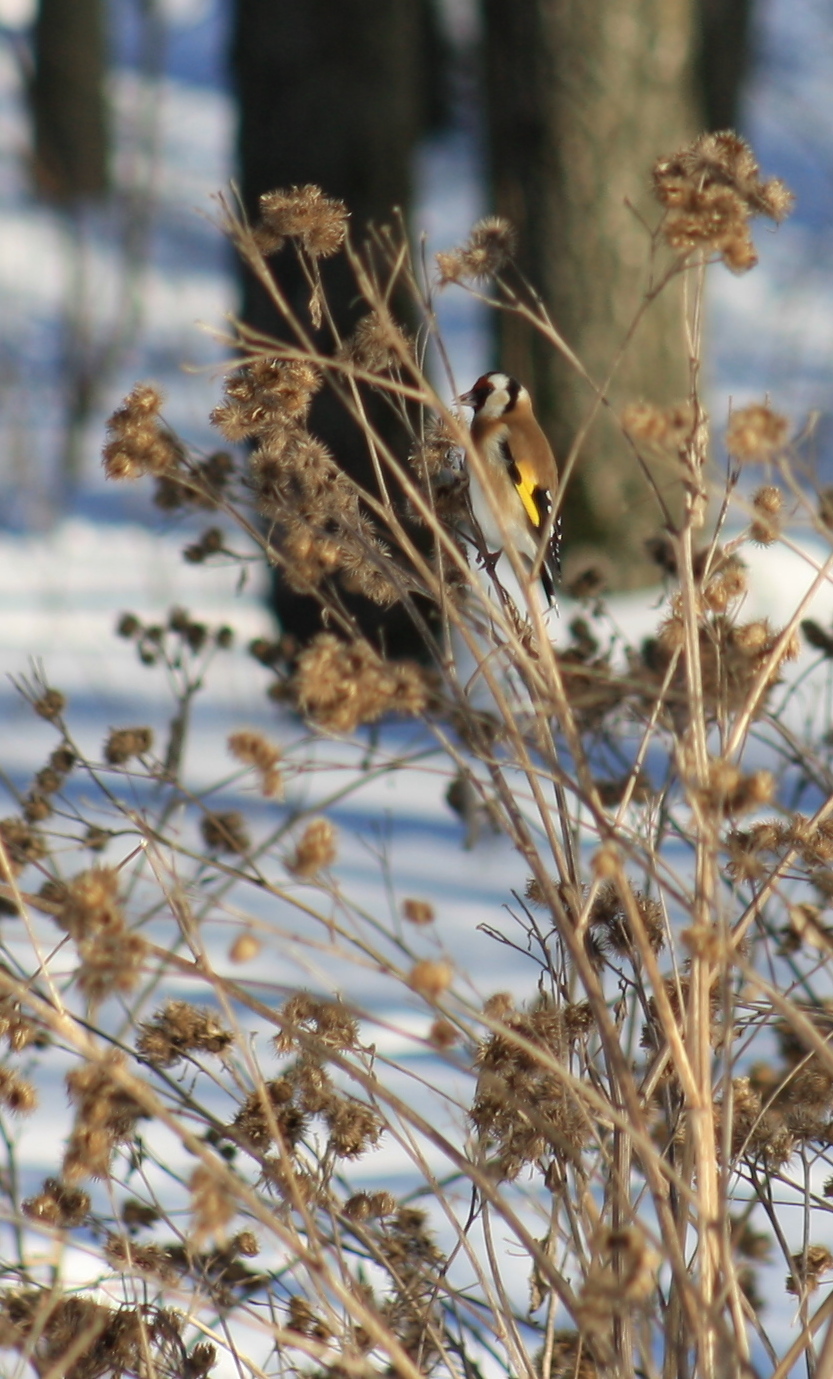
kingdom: Animalia
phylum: Chordata
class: Aves
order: Passeriformes
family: Fringillidae
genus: Carduelis
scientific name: Carduelis carduelis
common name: European goldfinch
